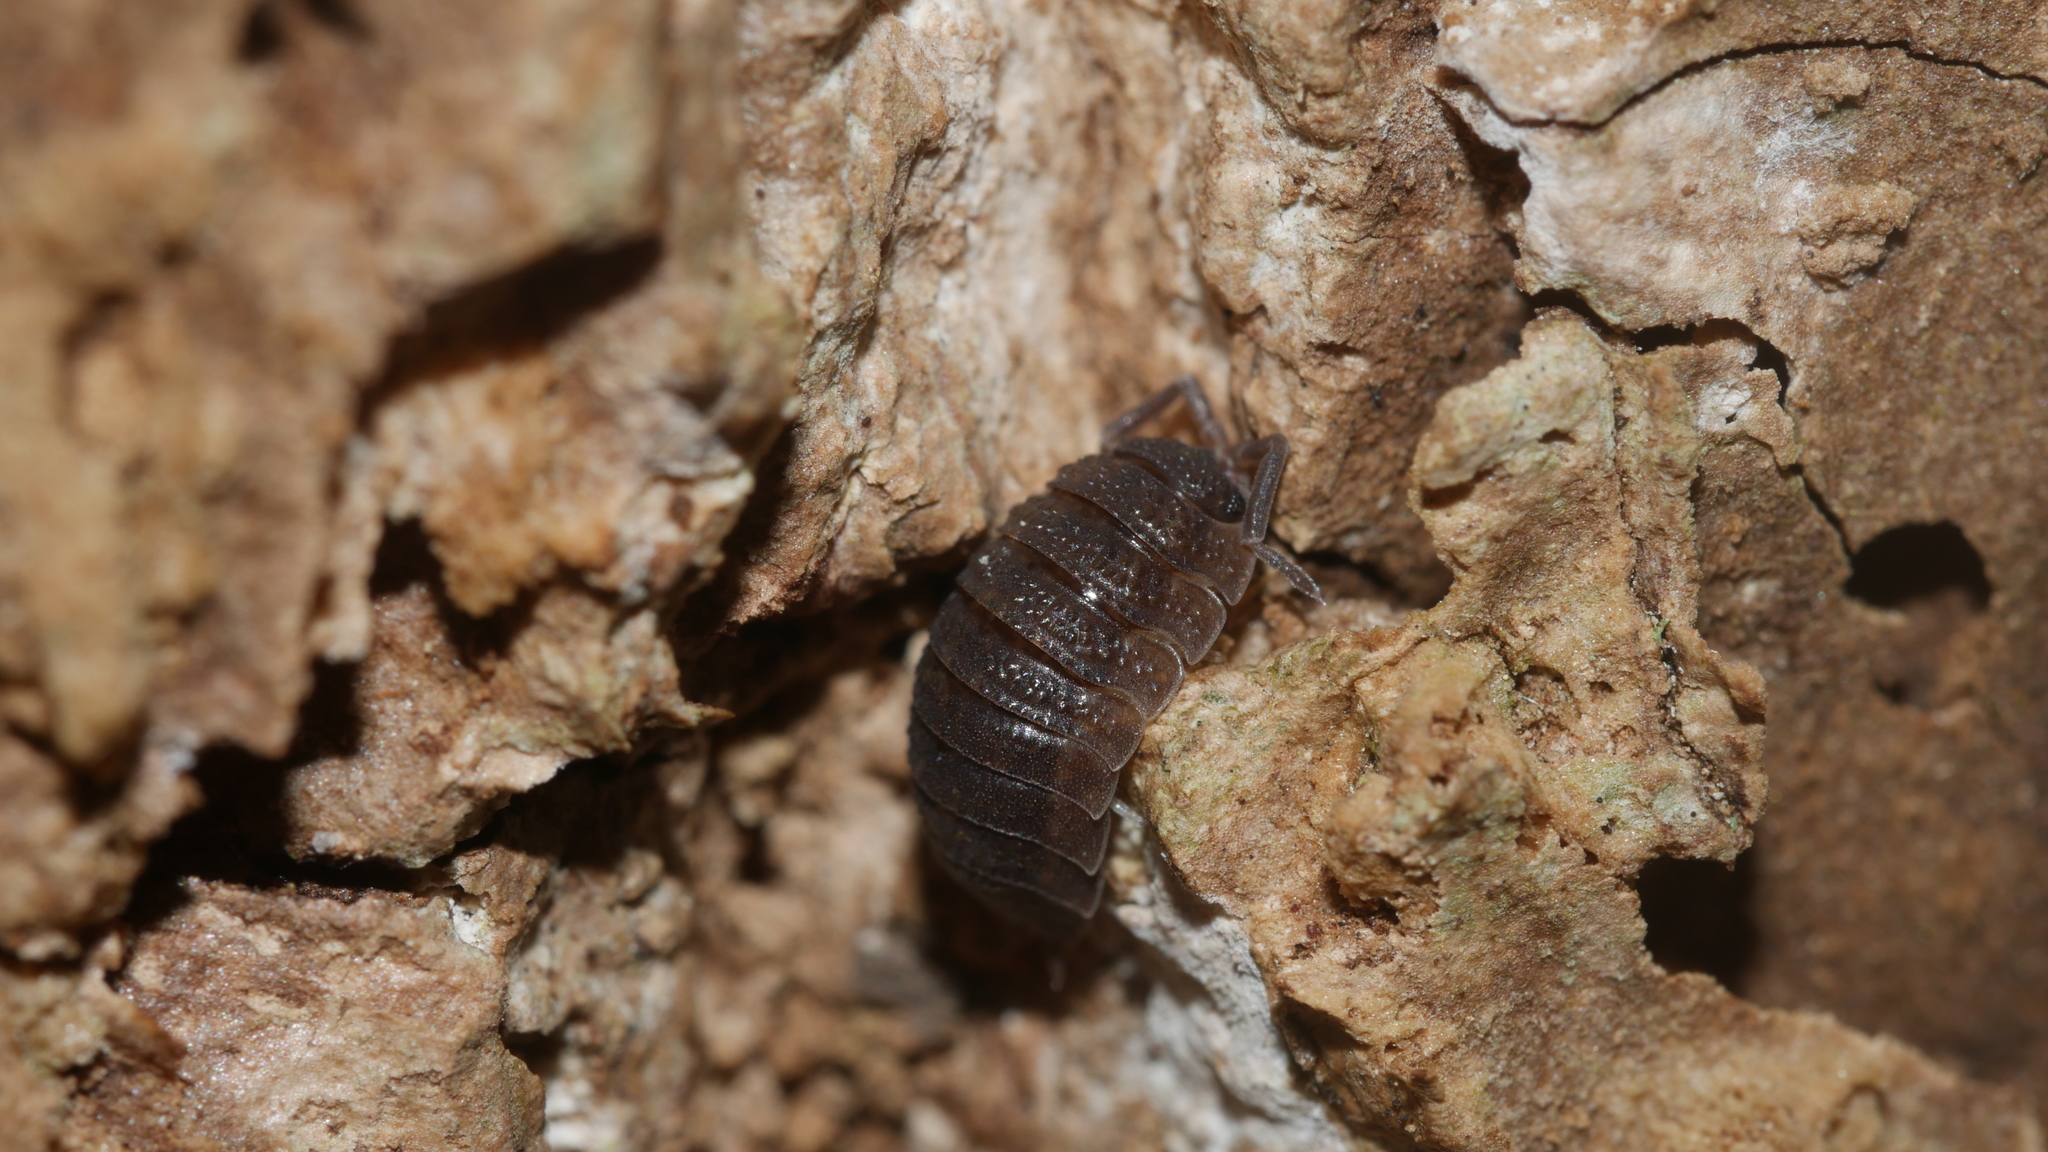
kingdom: Animalia
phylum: Arthropoda
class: Malacostraca
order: Isopoda
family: Porcellionidae
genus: Porcellio
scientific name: Porcellio scaber
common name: Common rough woodlouse
